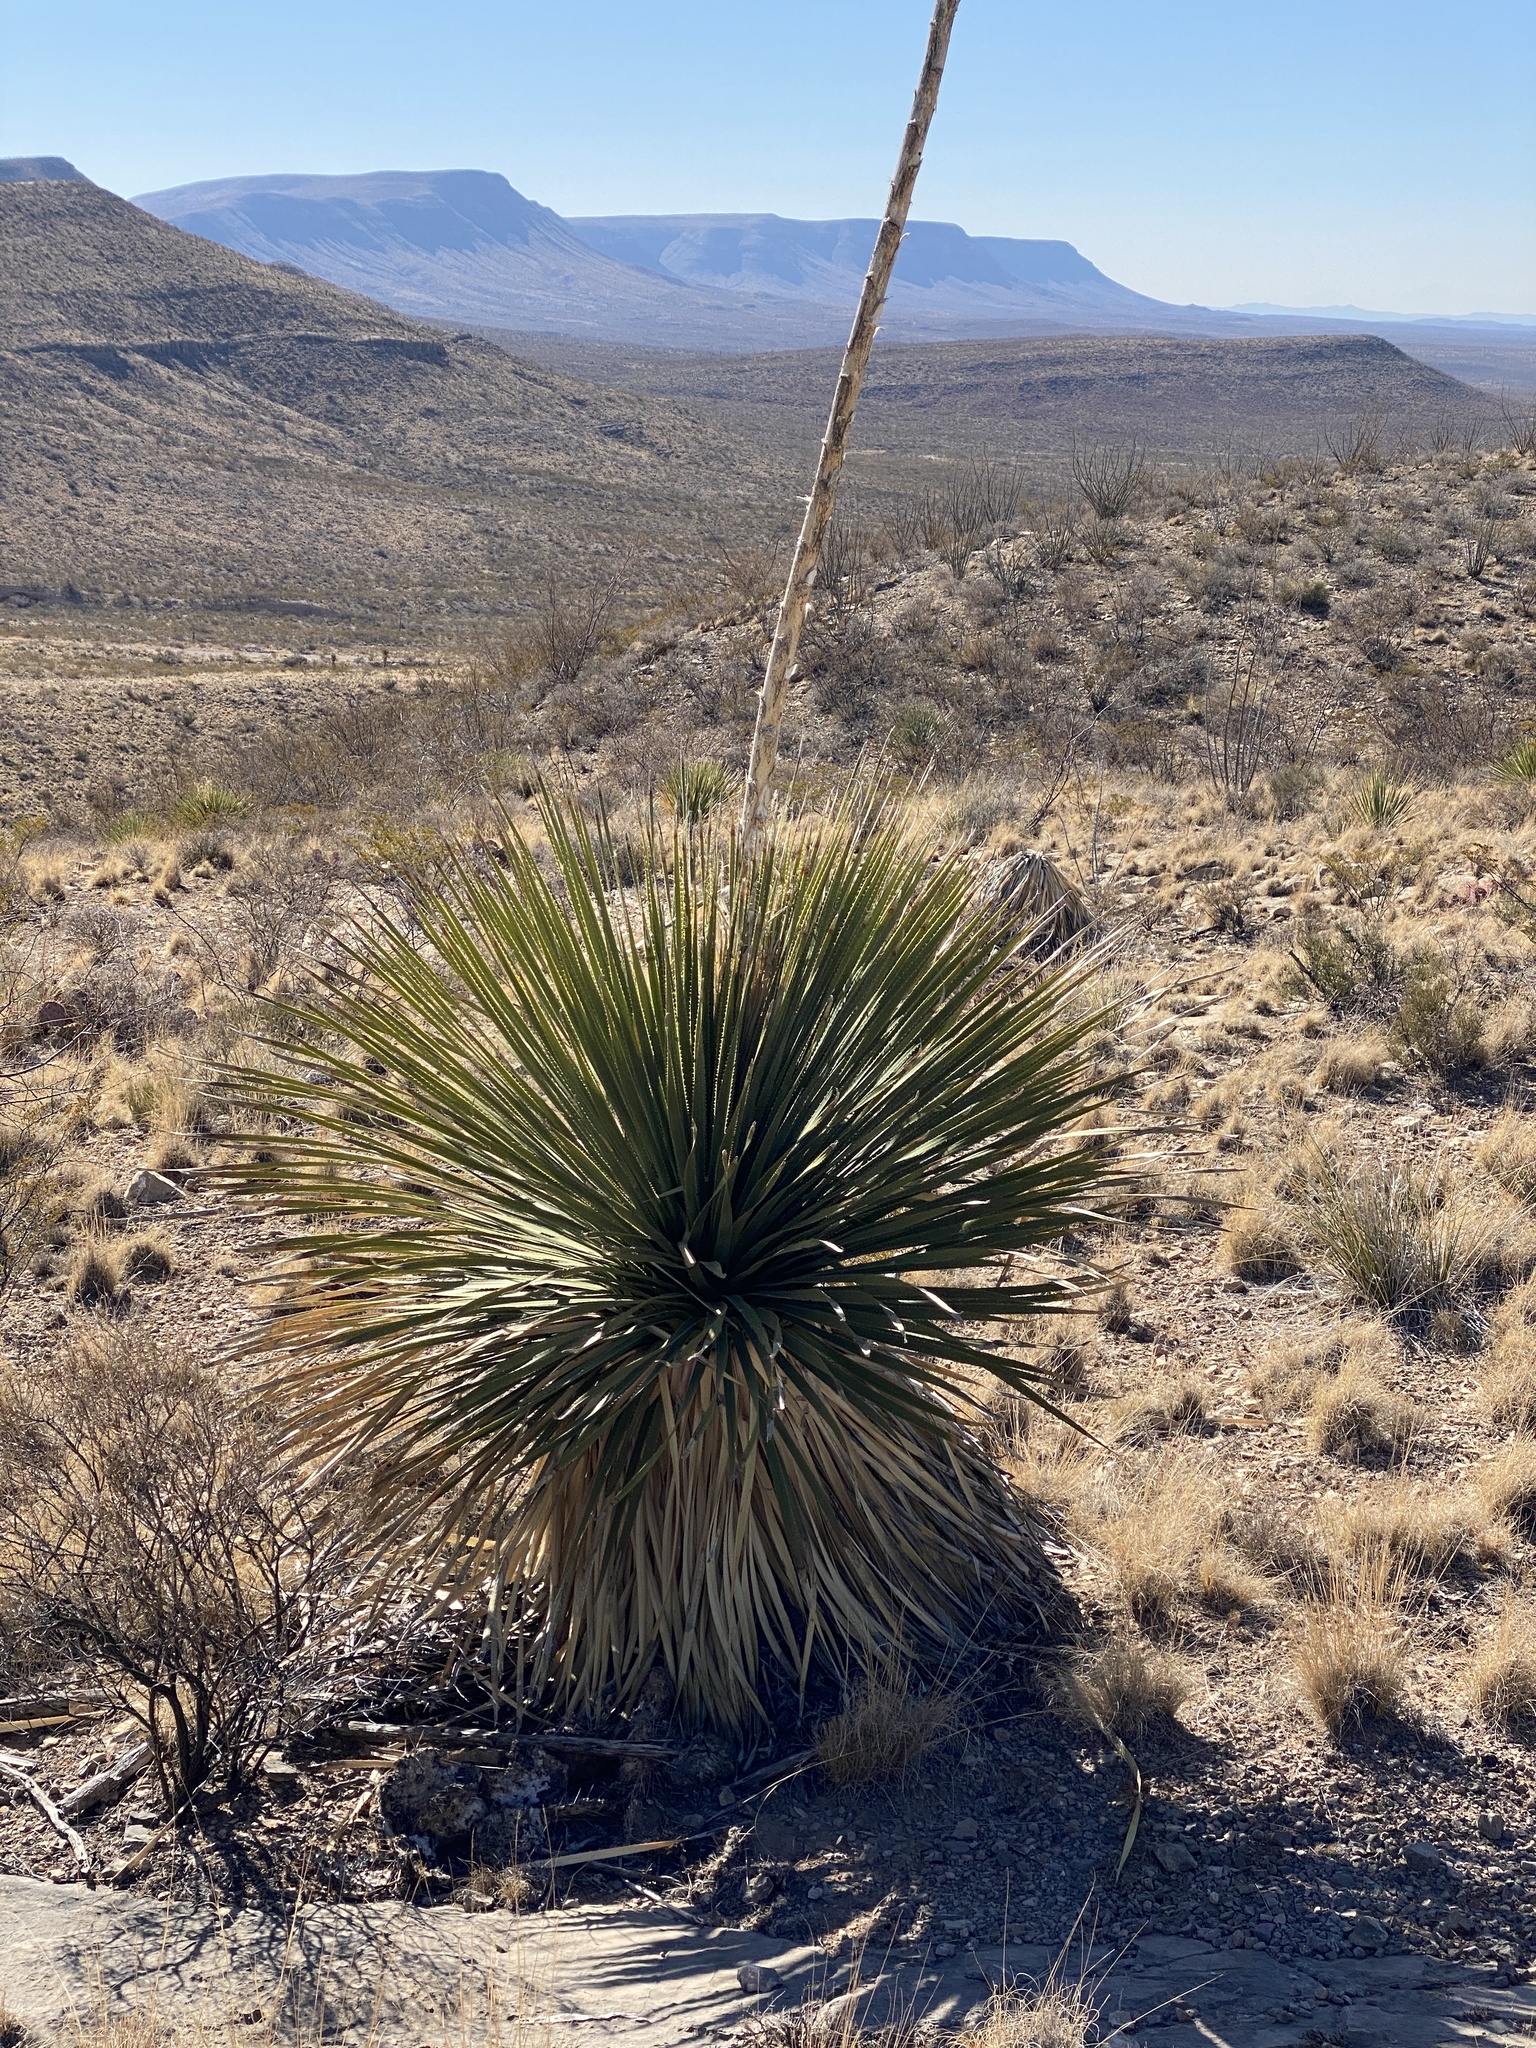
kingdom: Plantae
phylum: Tracheophyta
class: Liliopsida
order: Asparagales
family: Asparagaceae
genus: Dasylirion
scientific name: Dasylirion wheeleri
